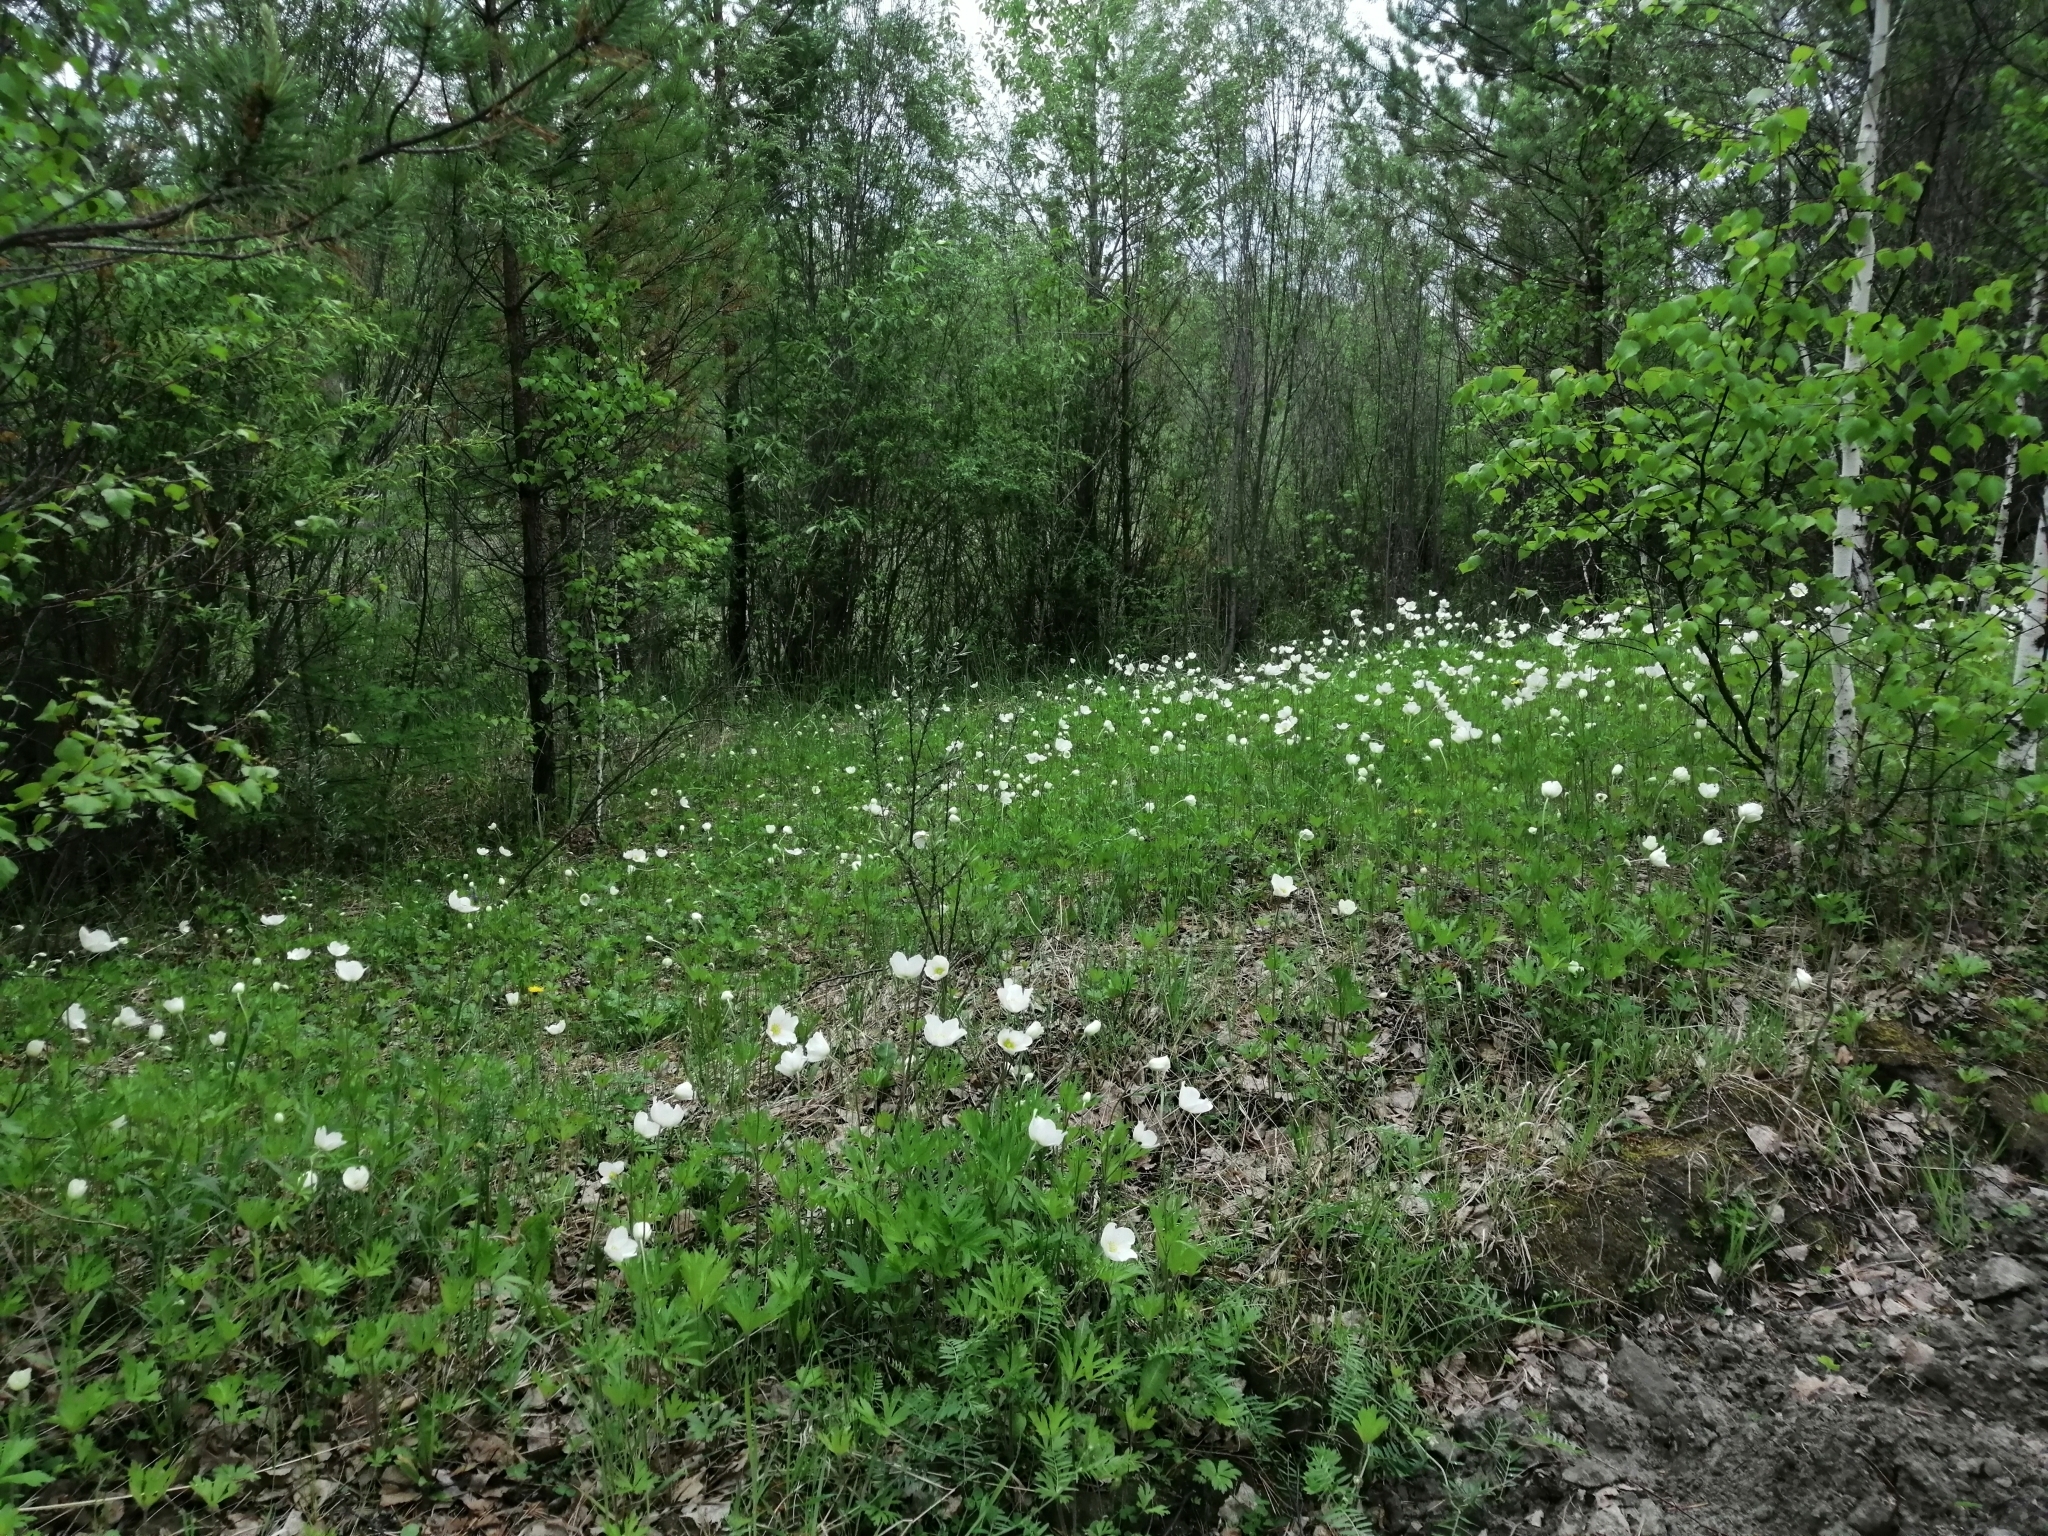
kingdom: Plantae
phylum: Tracheophyta
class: Magnoliopsida
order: Ranunculales
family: Ranunculaceae
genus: Anemone
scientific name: Anemone sylvestris
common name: Snowdrop anemone
